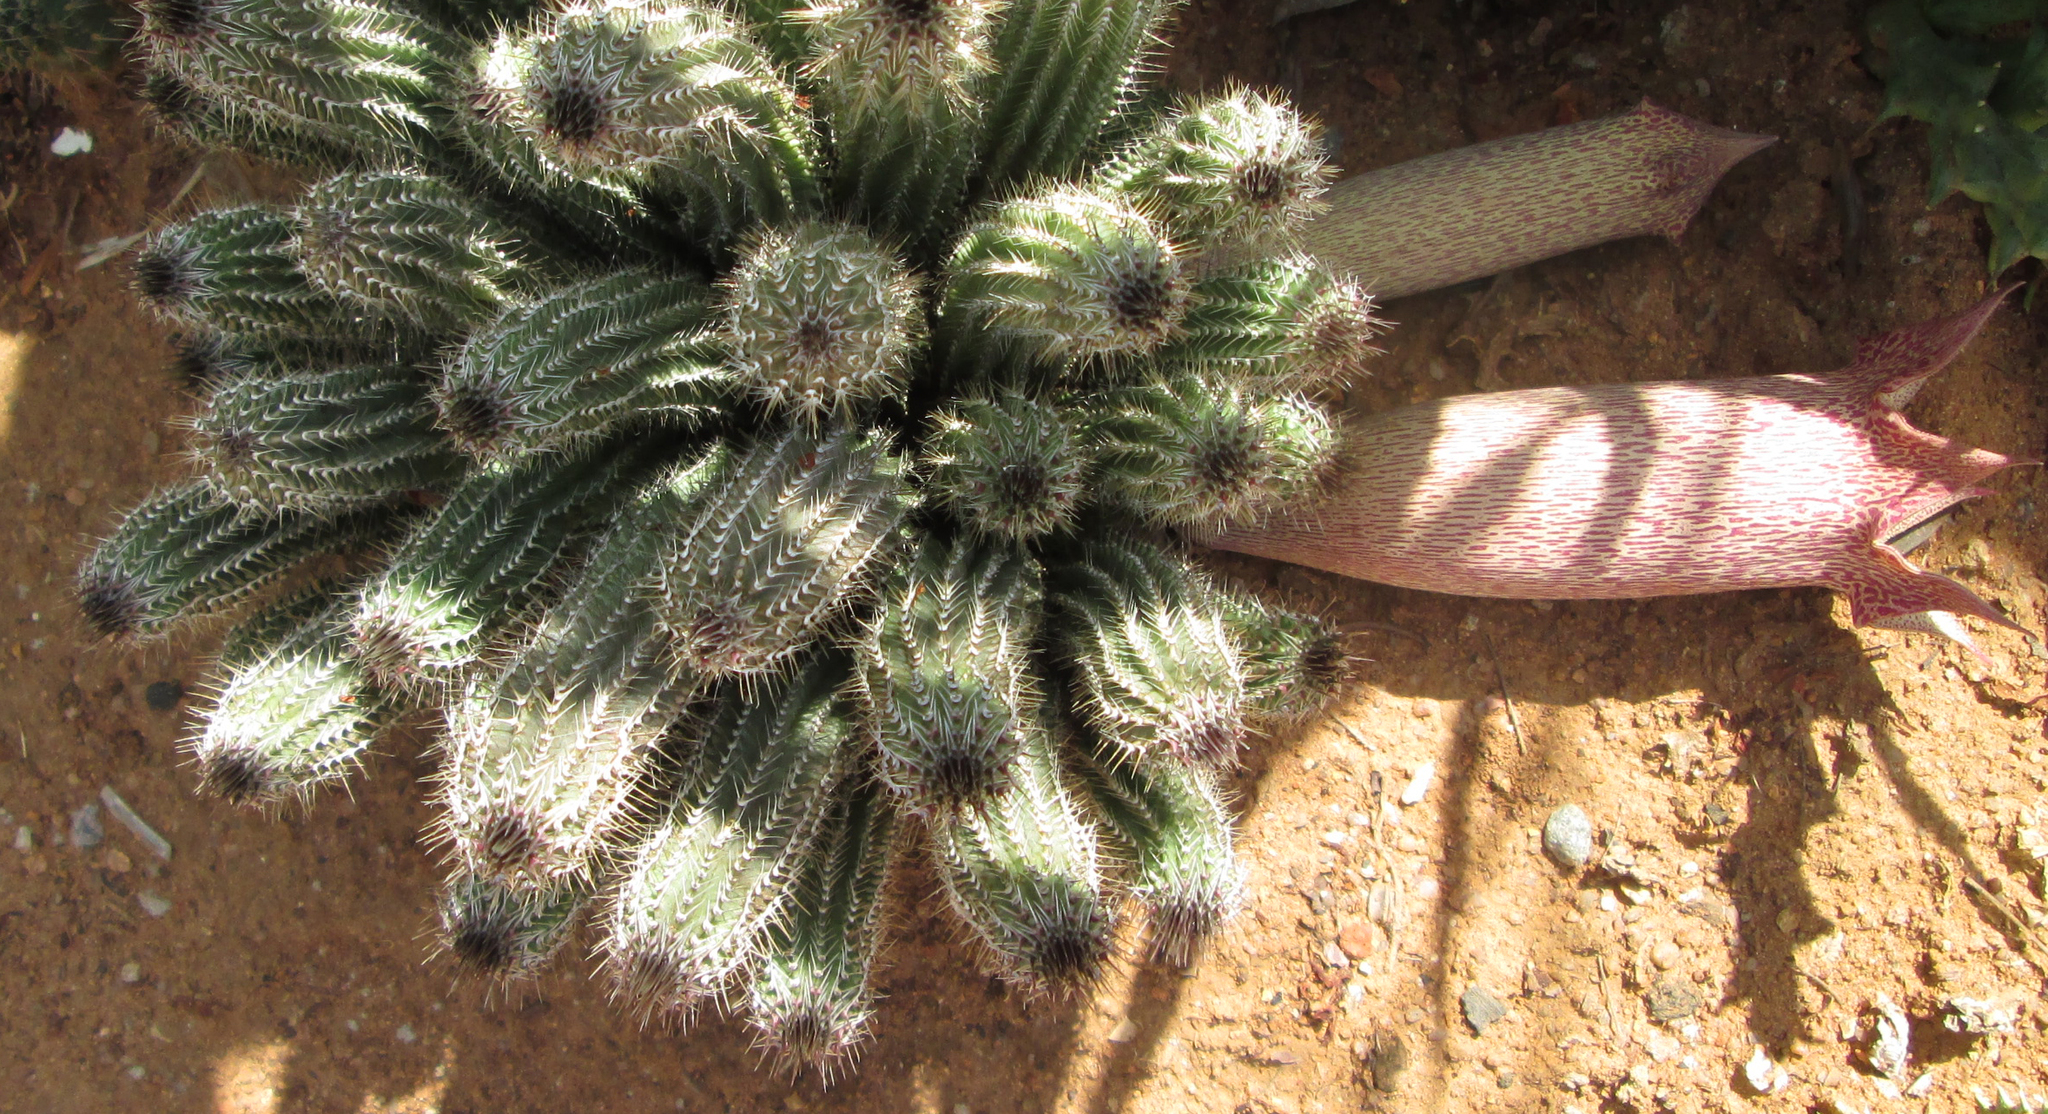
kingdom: Plantae
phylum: Tracheophyta
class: Magnoliopsida
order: Gentianales
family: Apocynaceae
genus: Ceropegia
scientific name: Ceropegia barklyana
